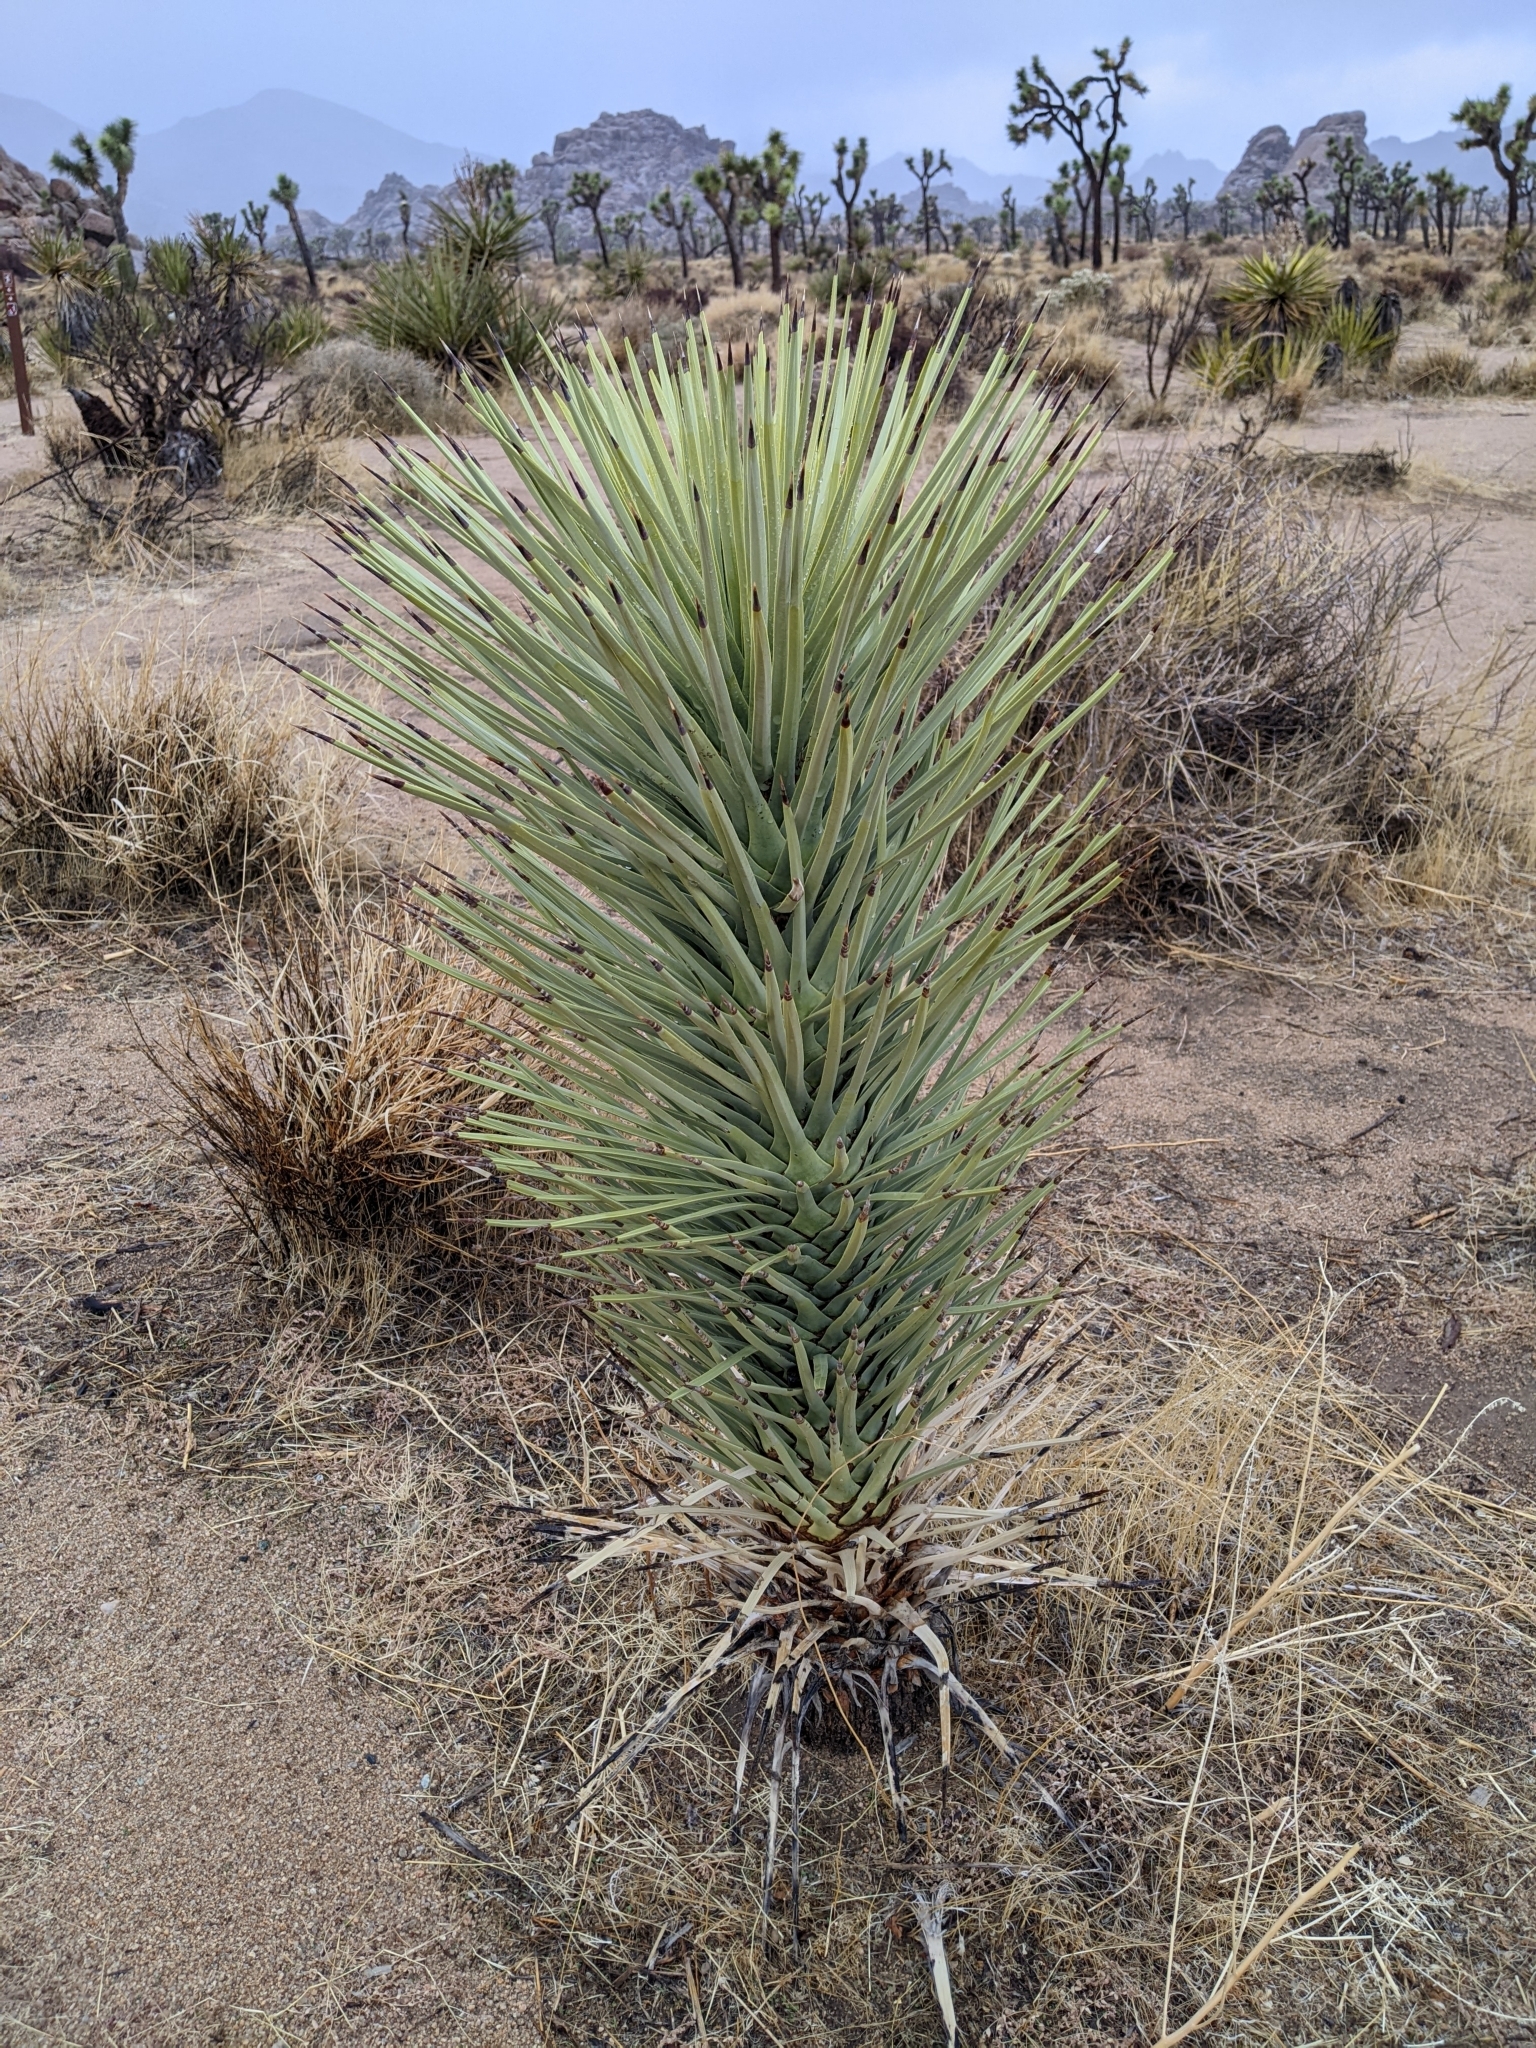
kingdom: Plantae
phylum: Tracheophyta
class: Liliopsida
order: Asparagales
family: Asparagaceae
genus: Yucca
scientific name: Yucca brevifolia
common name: Joshua tree
